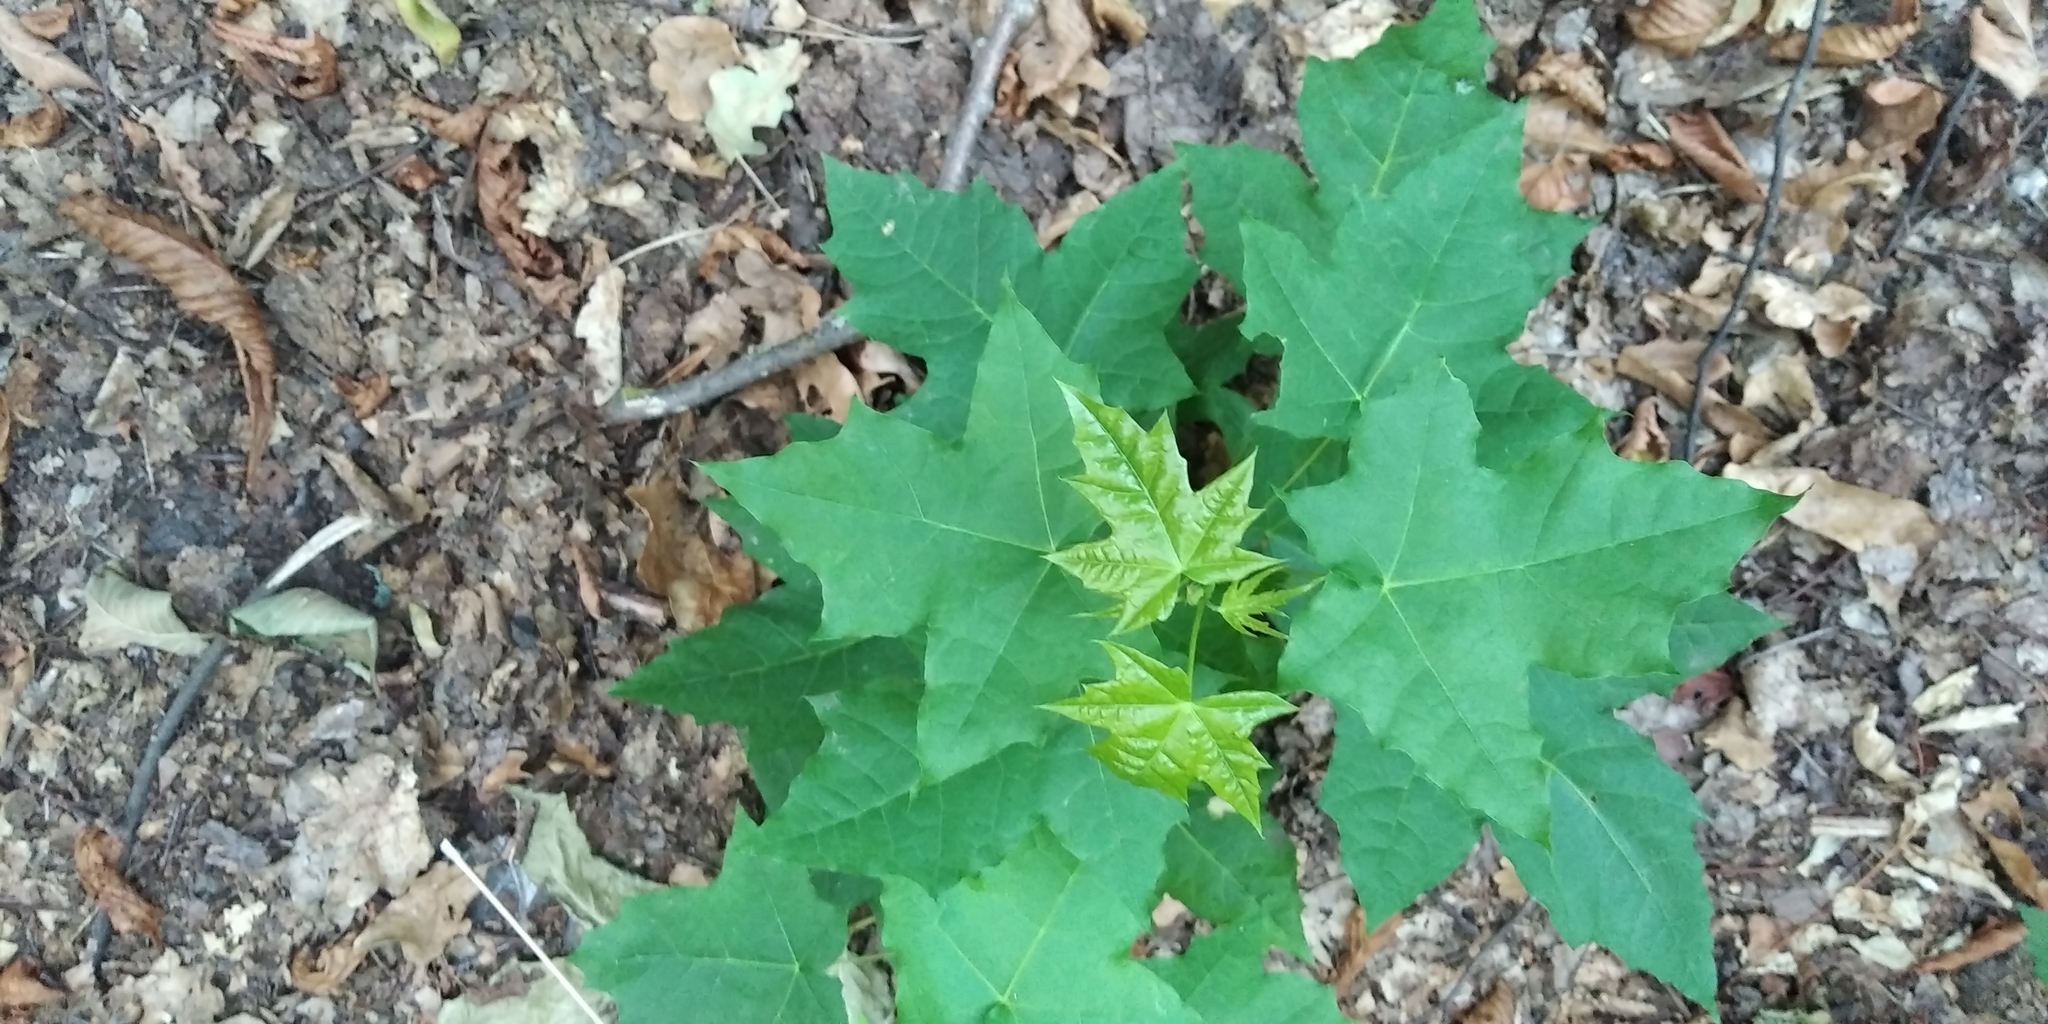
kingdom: Plantae
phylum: Tracheophyta
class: Magnoliopsida
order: Sapindales
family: Sapindaceae
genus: Acer
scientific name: Acer platanoides
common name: Norway maple
